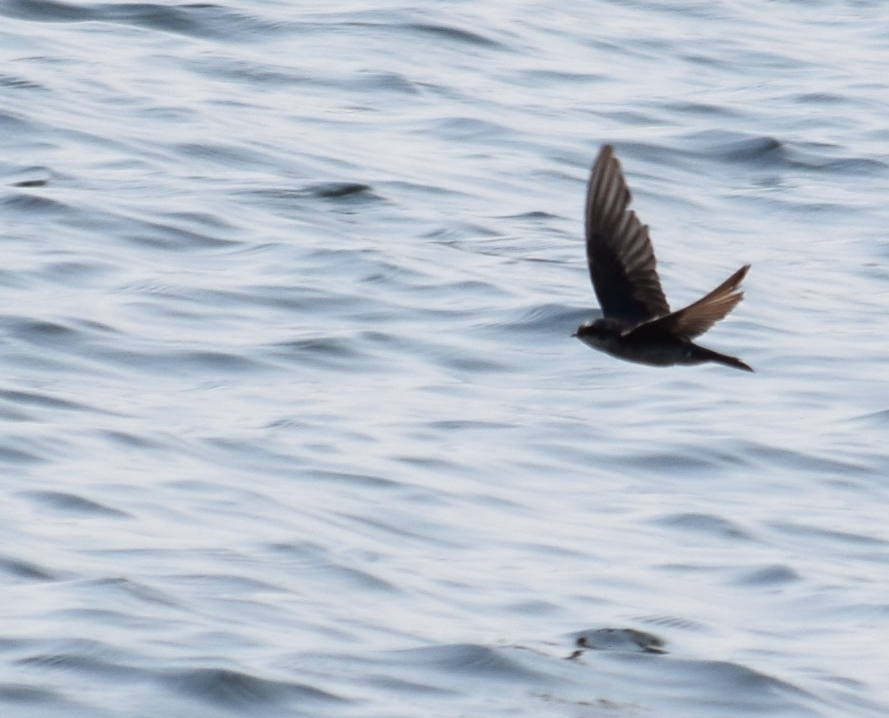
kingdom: Animalia
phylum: Chordata
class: Aves
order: Passeriformes
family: Hirundinidae
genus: Tachycineta
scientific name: Tachycineta bicolor
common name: Tree swallow
